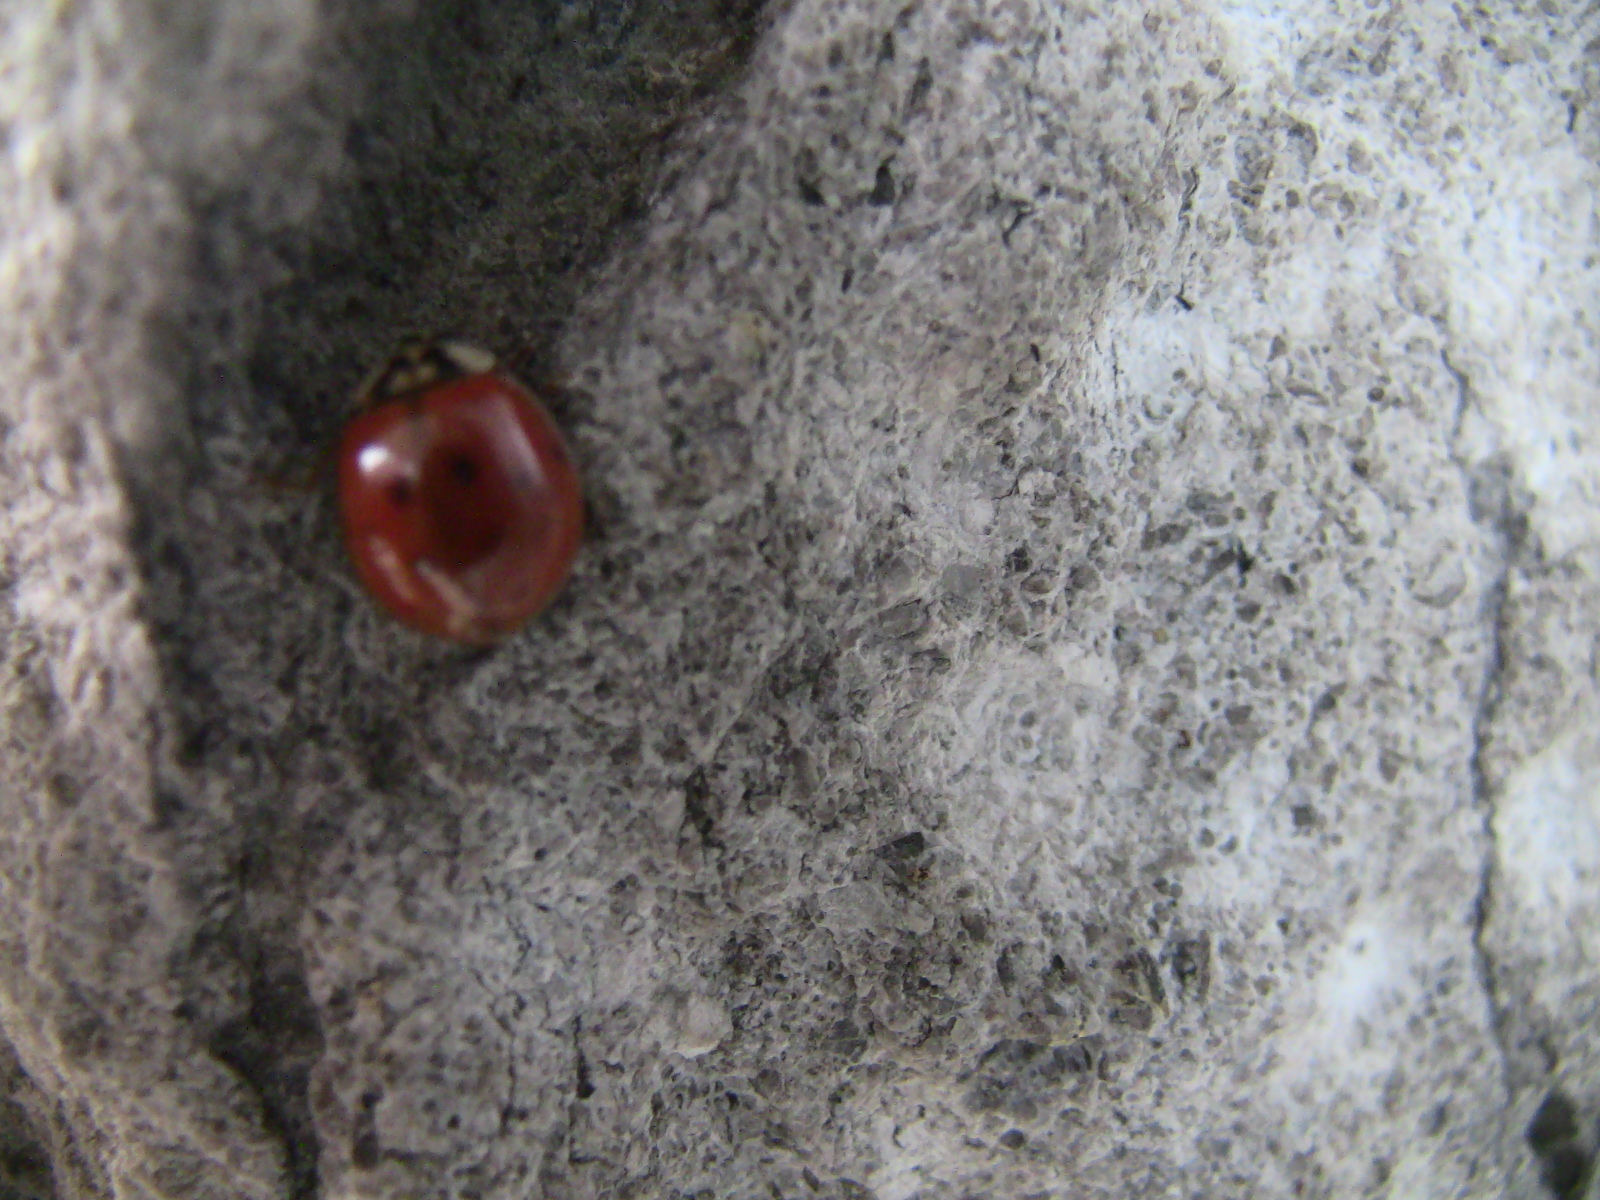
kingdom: Animalia
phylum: Arthropoda
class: Insecta
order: Coleoptera
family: Coccinellidae
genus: Harmonia
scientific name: Harmonia axyridis
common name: Harlequin ladybird
